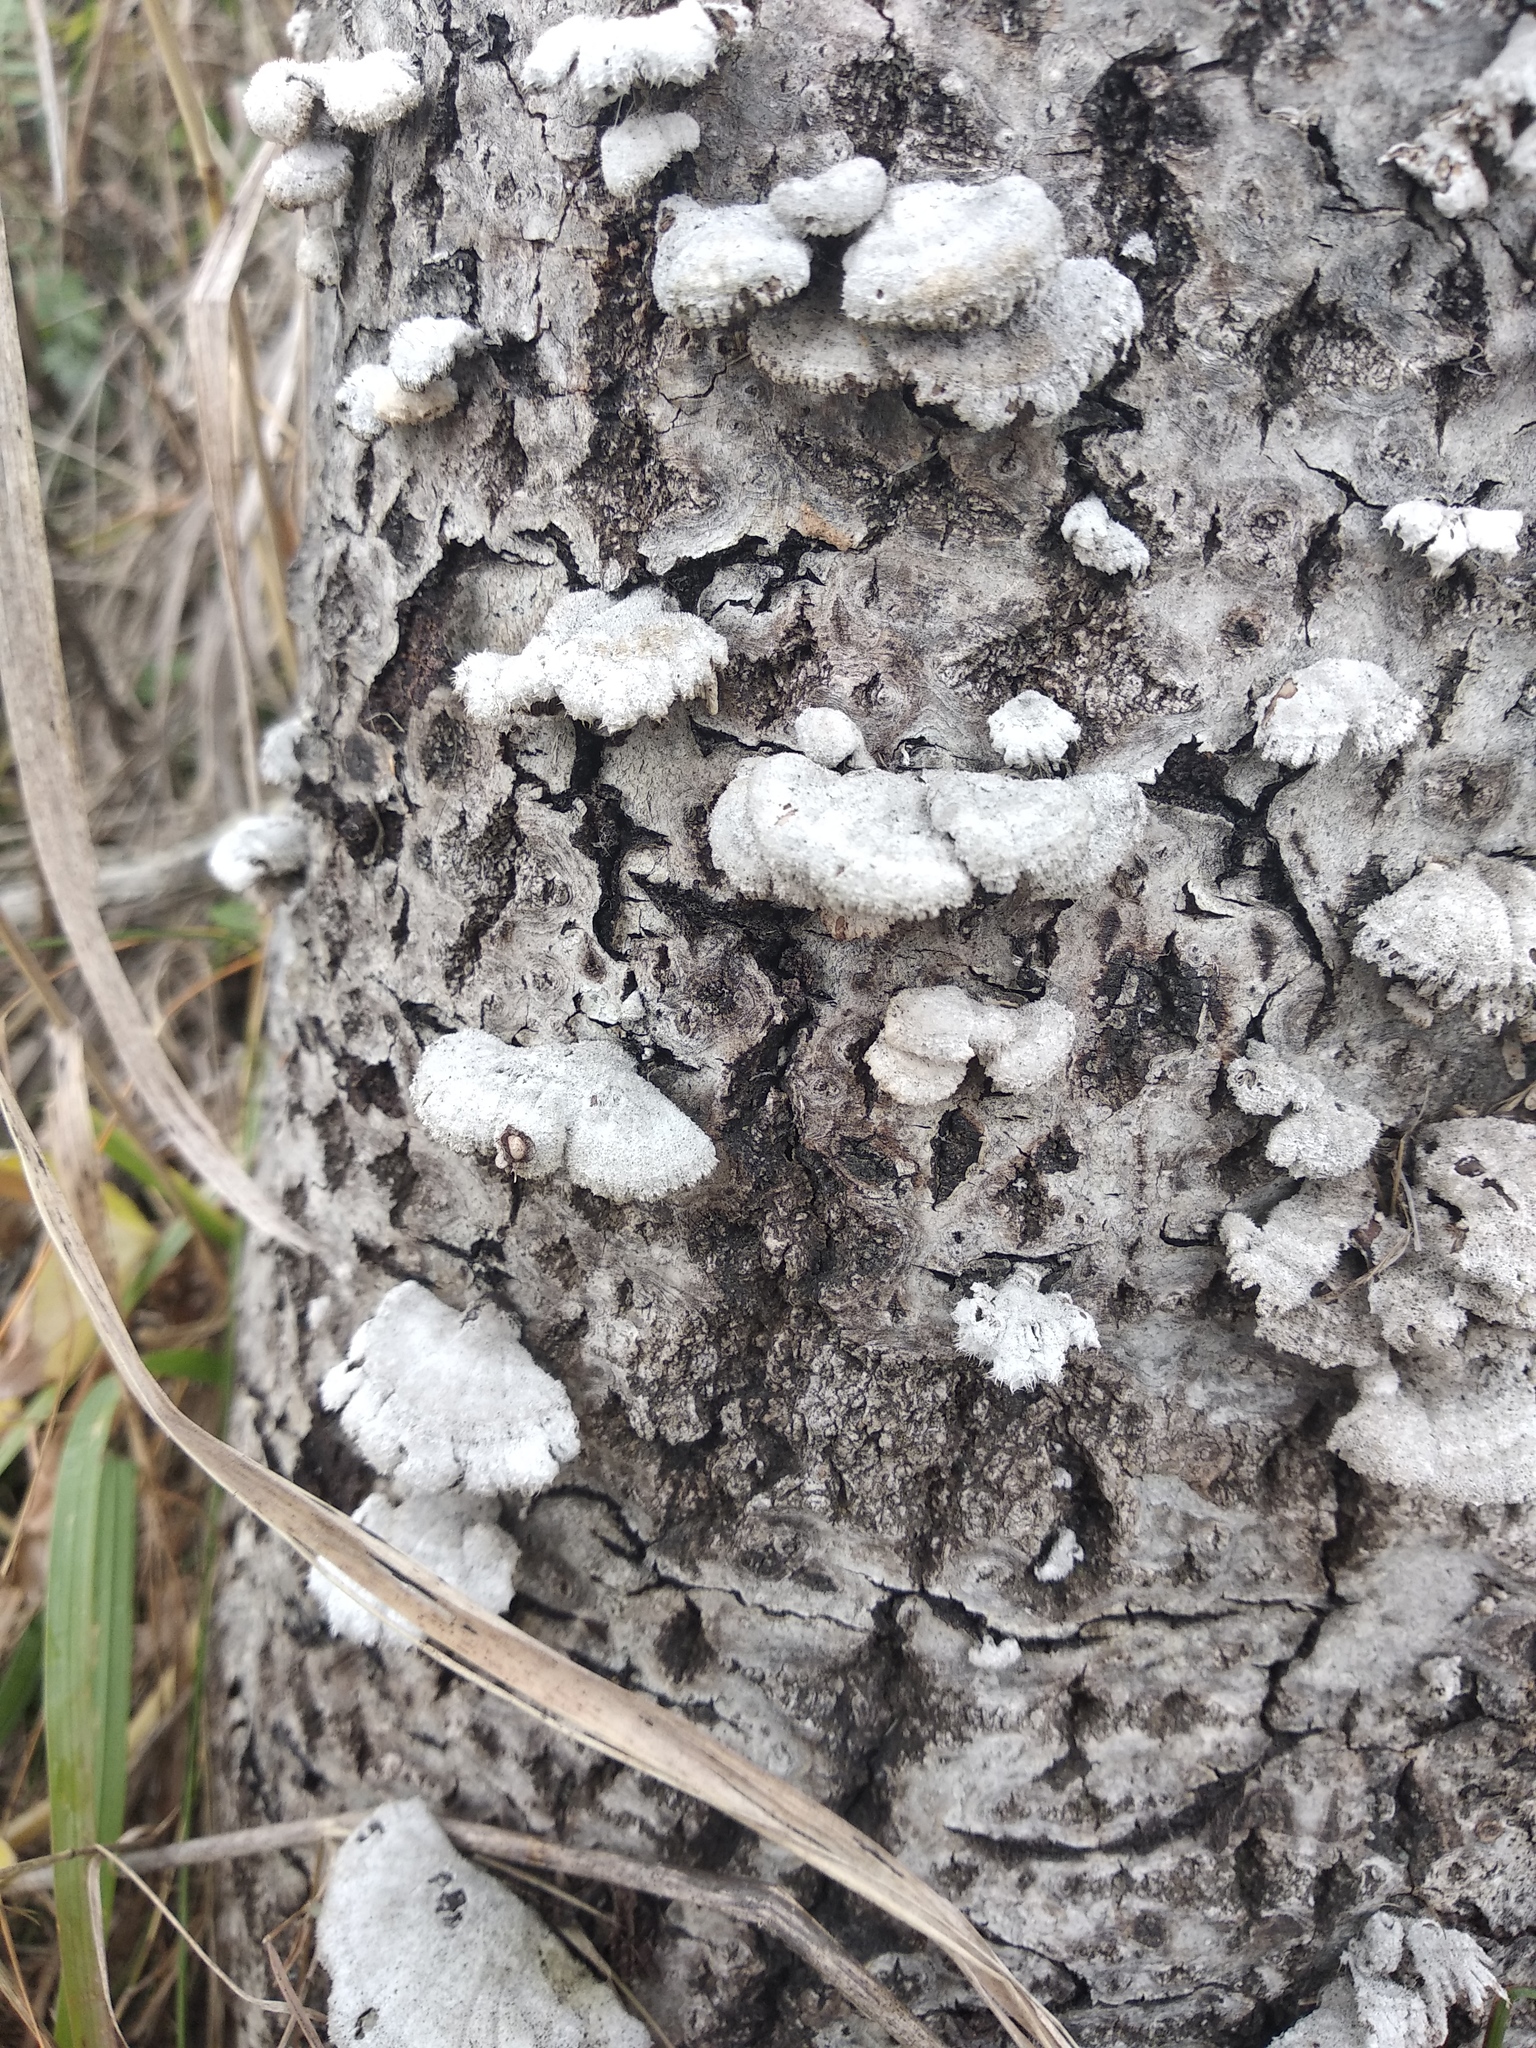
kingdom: Fungi
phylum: Basidiomycota
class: Agaricomycetes
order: Agaricales
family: Schizophyllaceae
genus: Schizophyllum
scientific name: Schizophyllum commune
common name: Common porecrust
